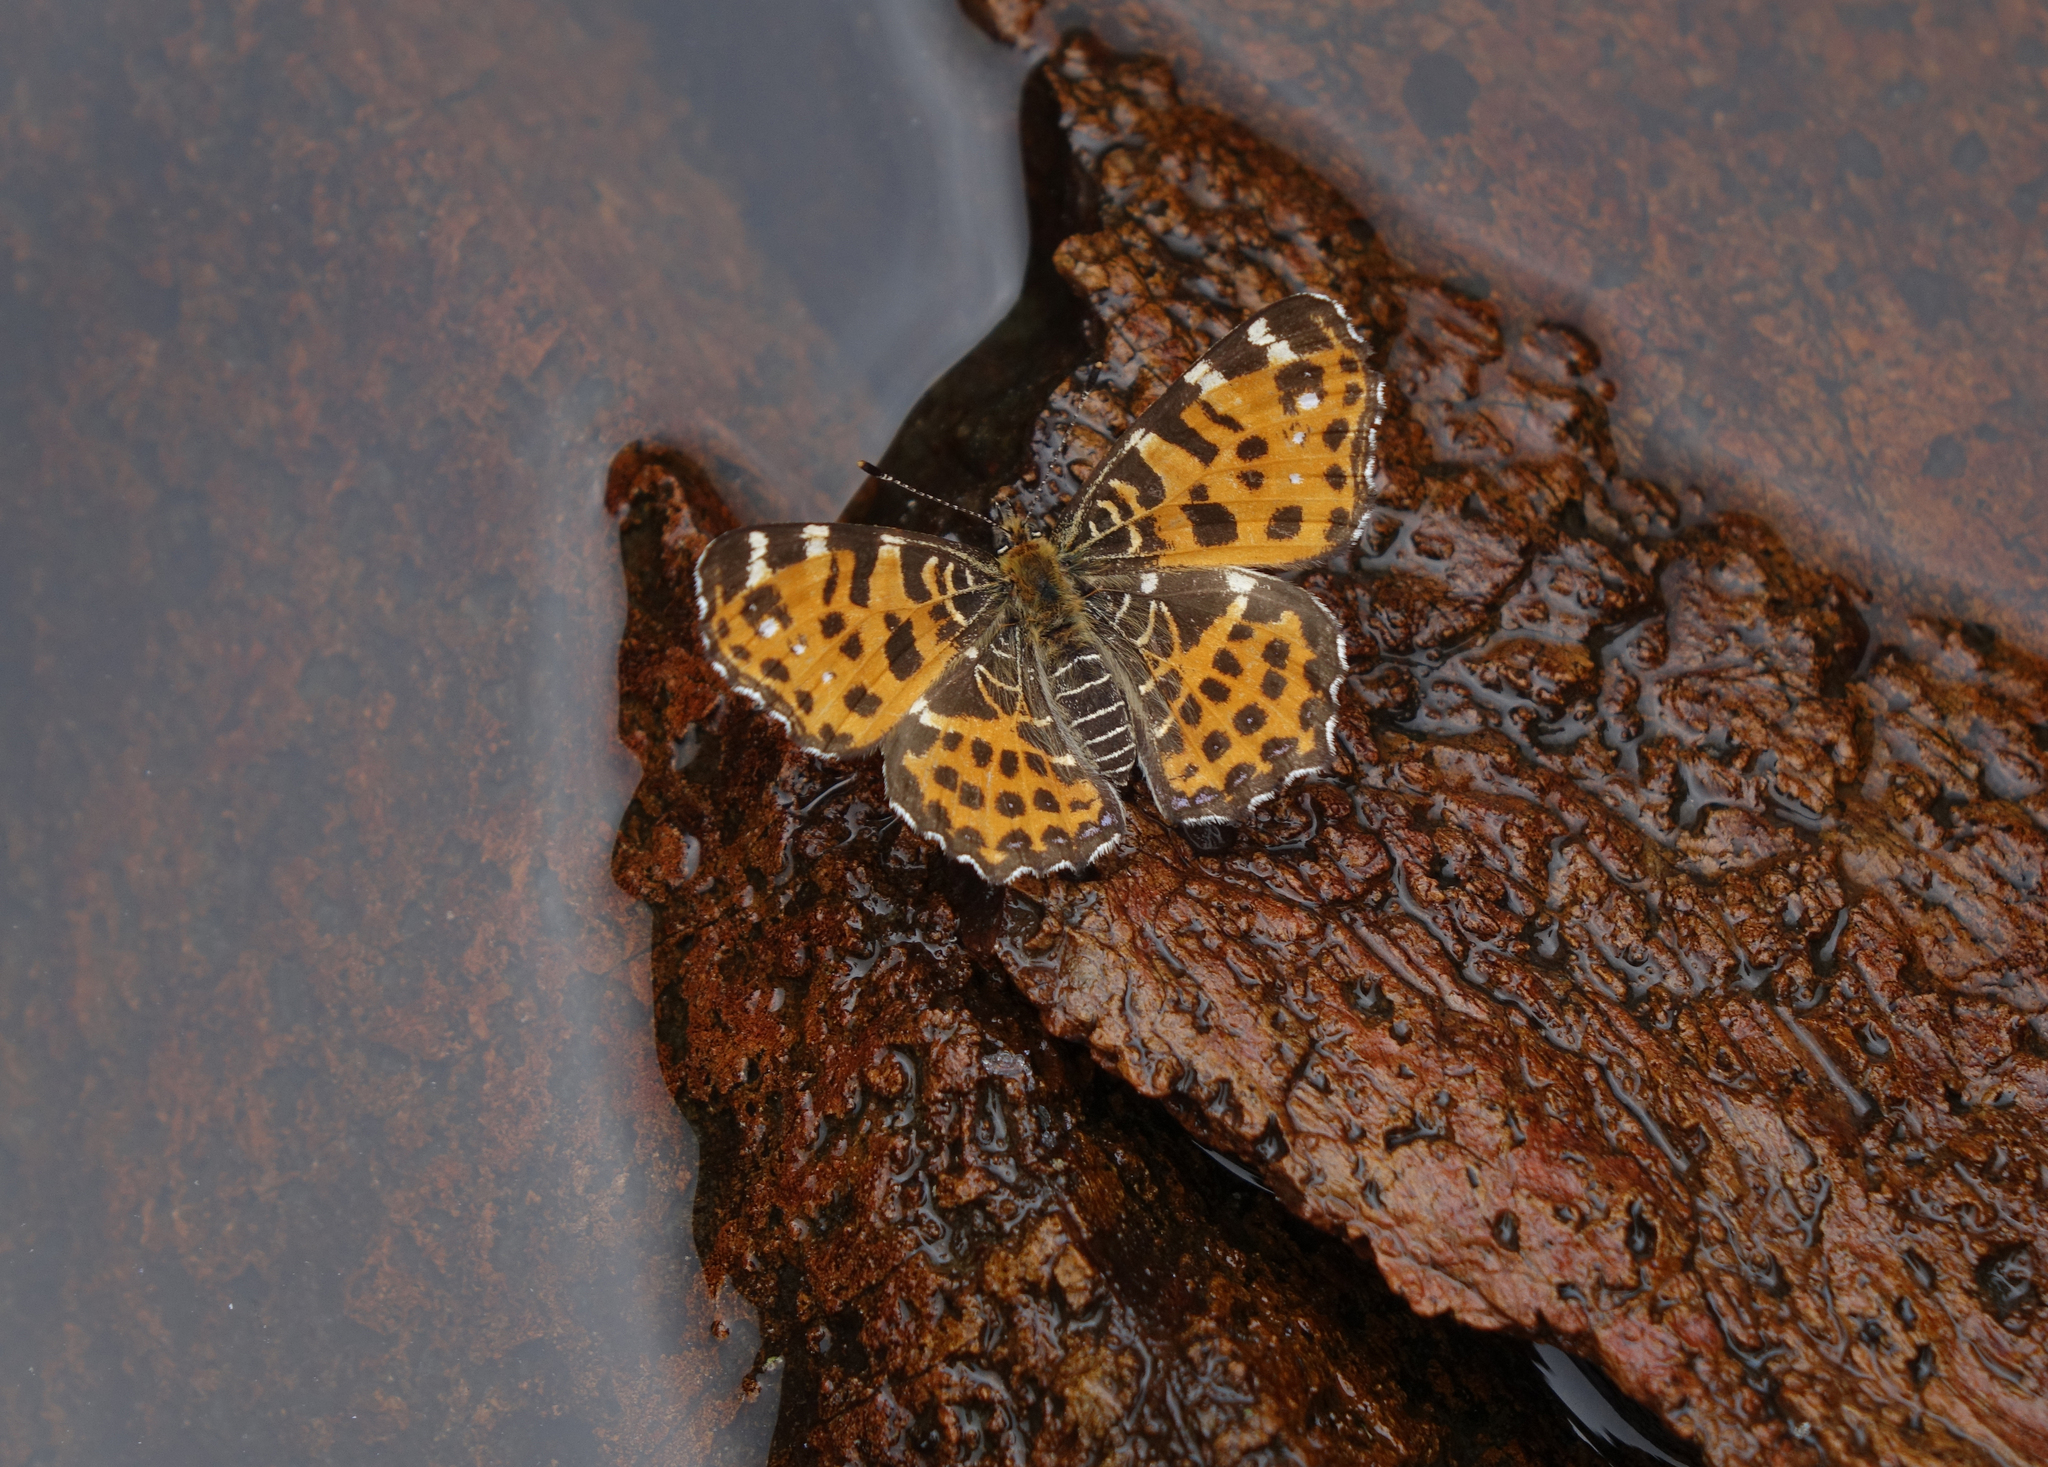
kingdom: Animalia
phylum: Arthropoda
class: Insecta
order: Lepidoptera
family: Nymphalidae
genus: Araschnia
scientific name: Araschnia levana
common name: Map butterfly
